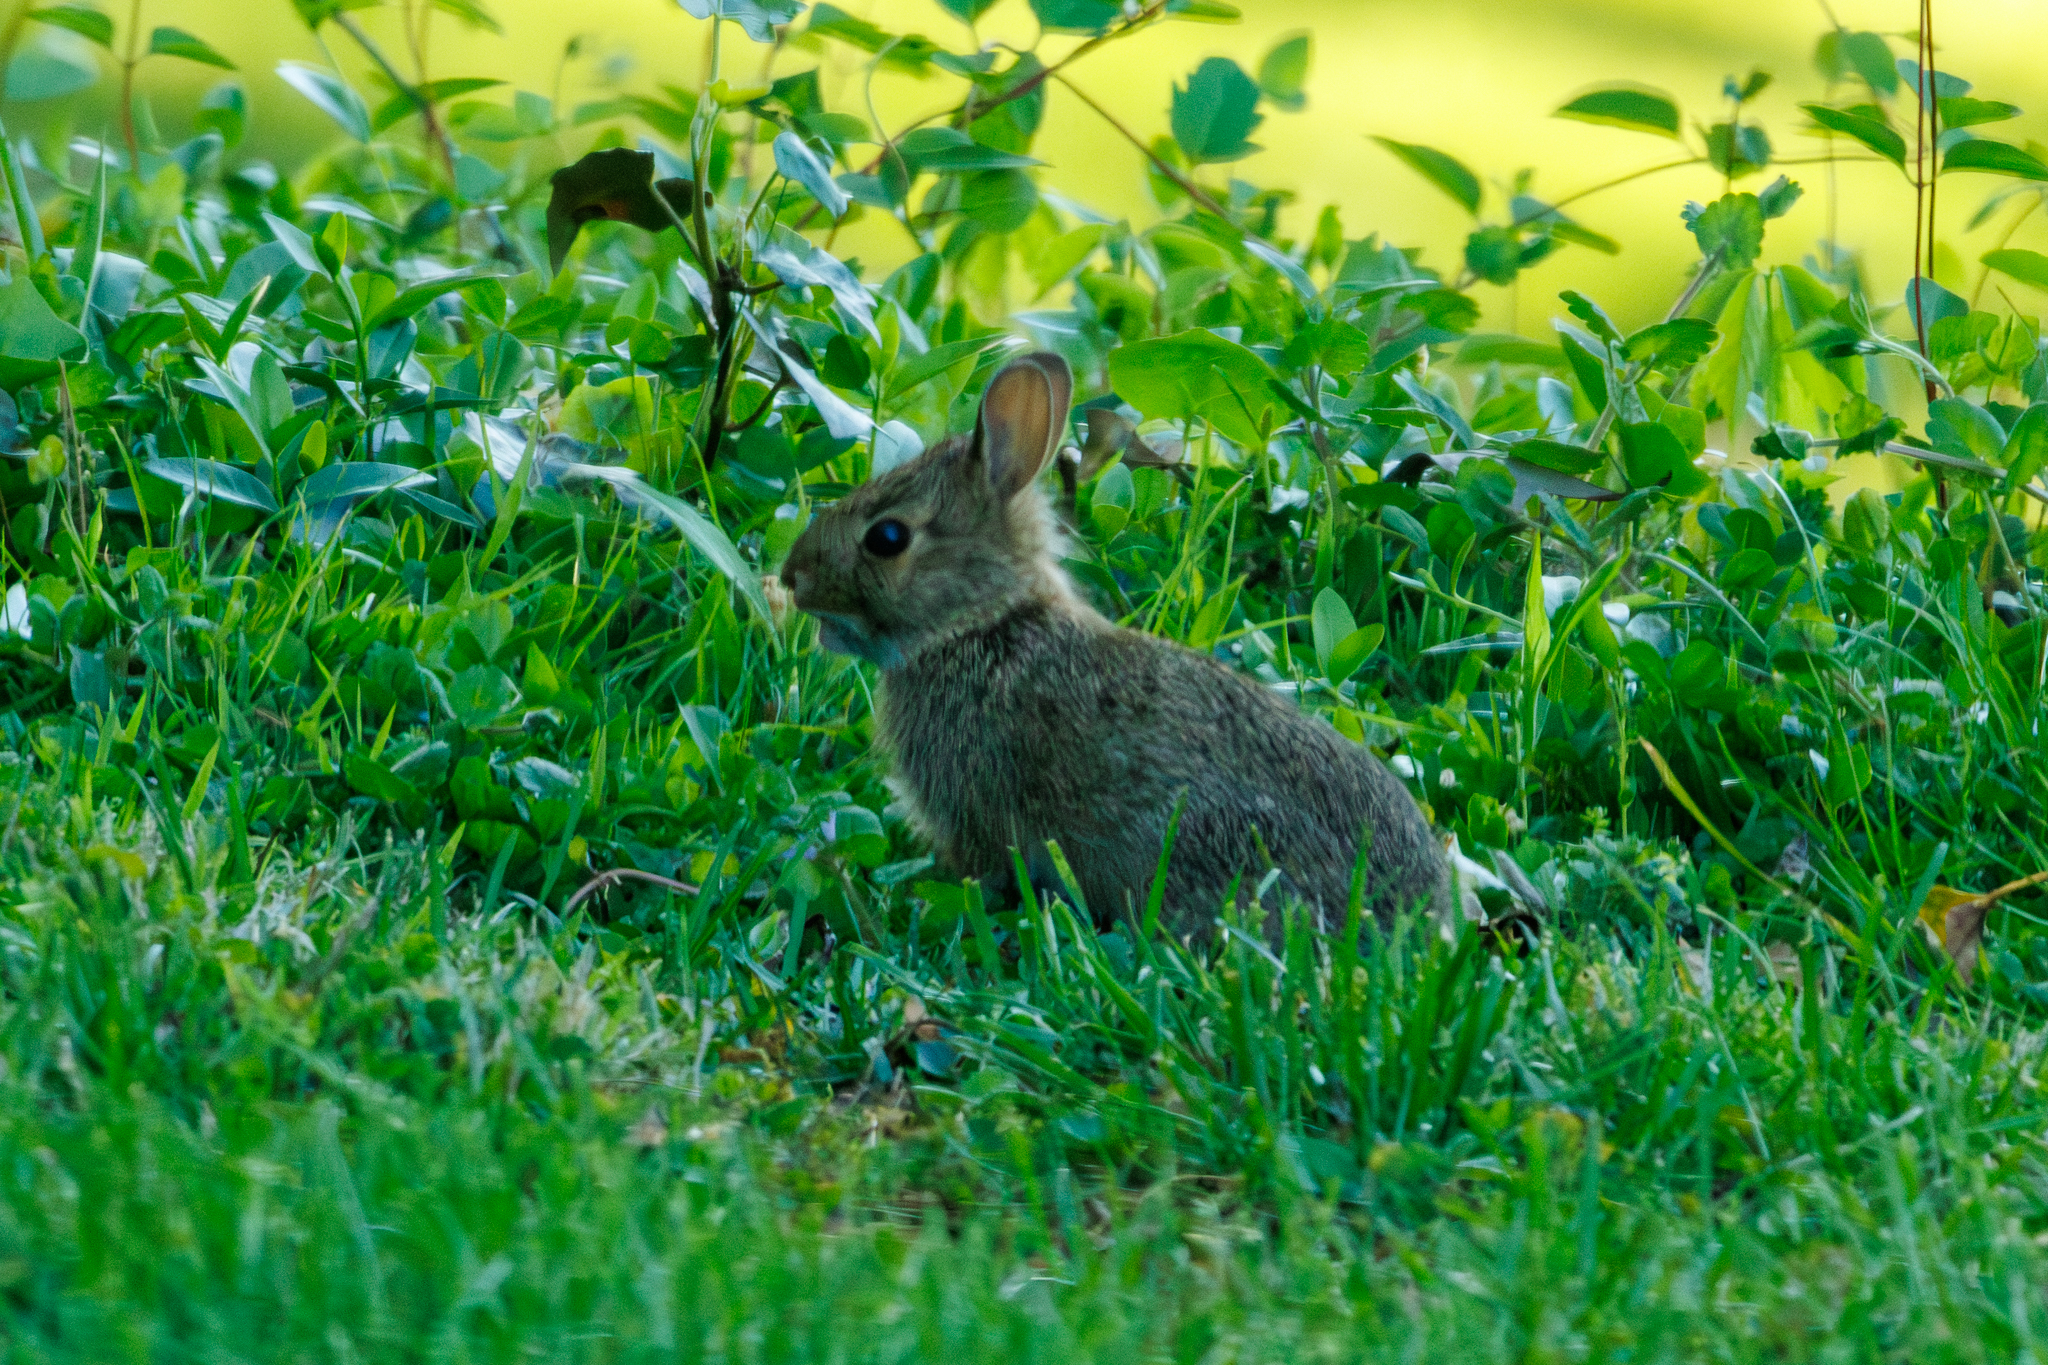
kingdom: Animalia
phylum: Chordata
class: Mammalia
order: Lagomorpha
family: Leporidae
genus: Sylvilagus
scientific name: Sylvilagus floridanus
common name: Eastern cottontail
